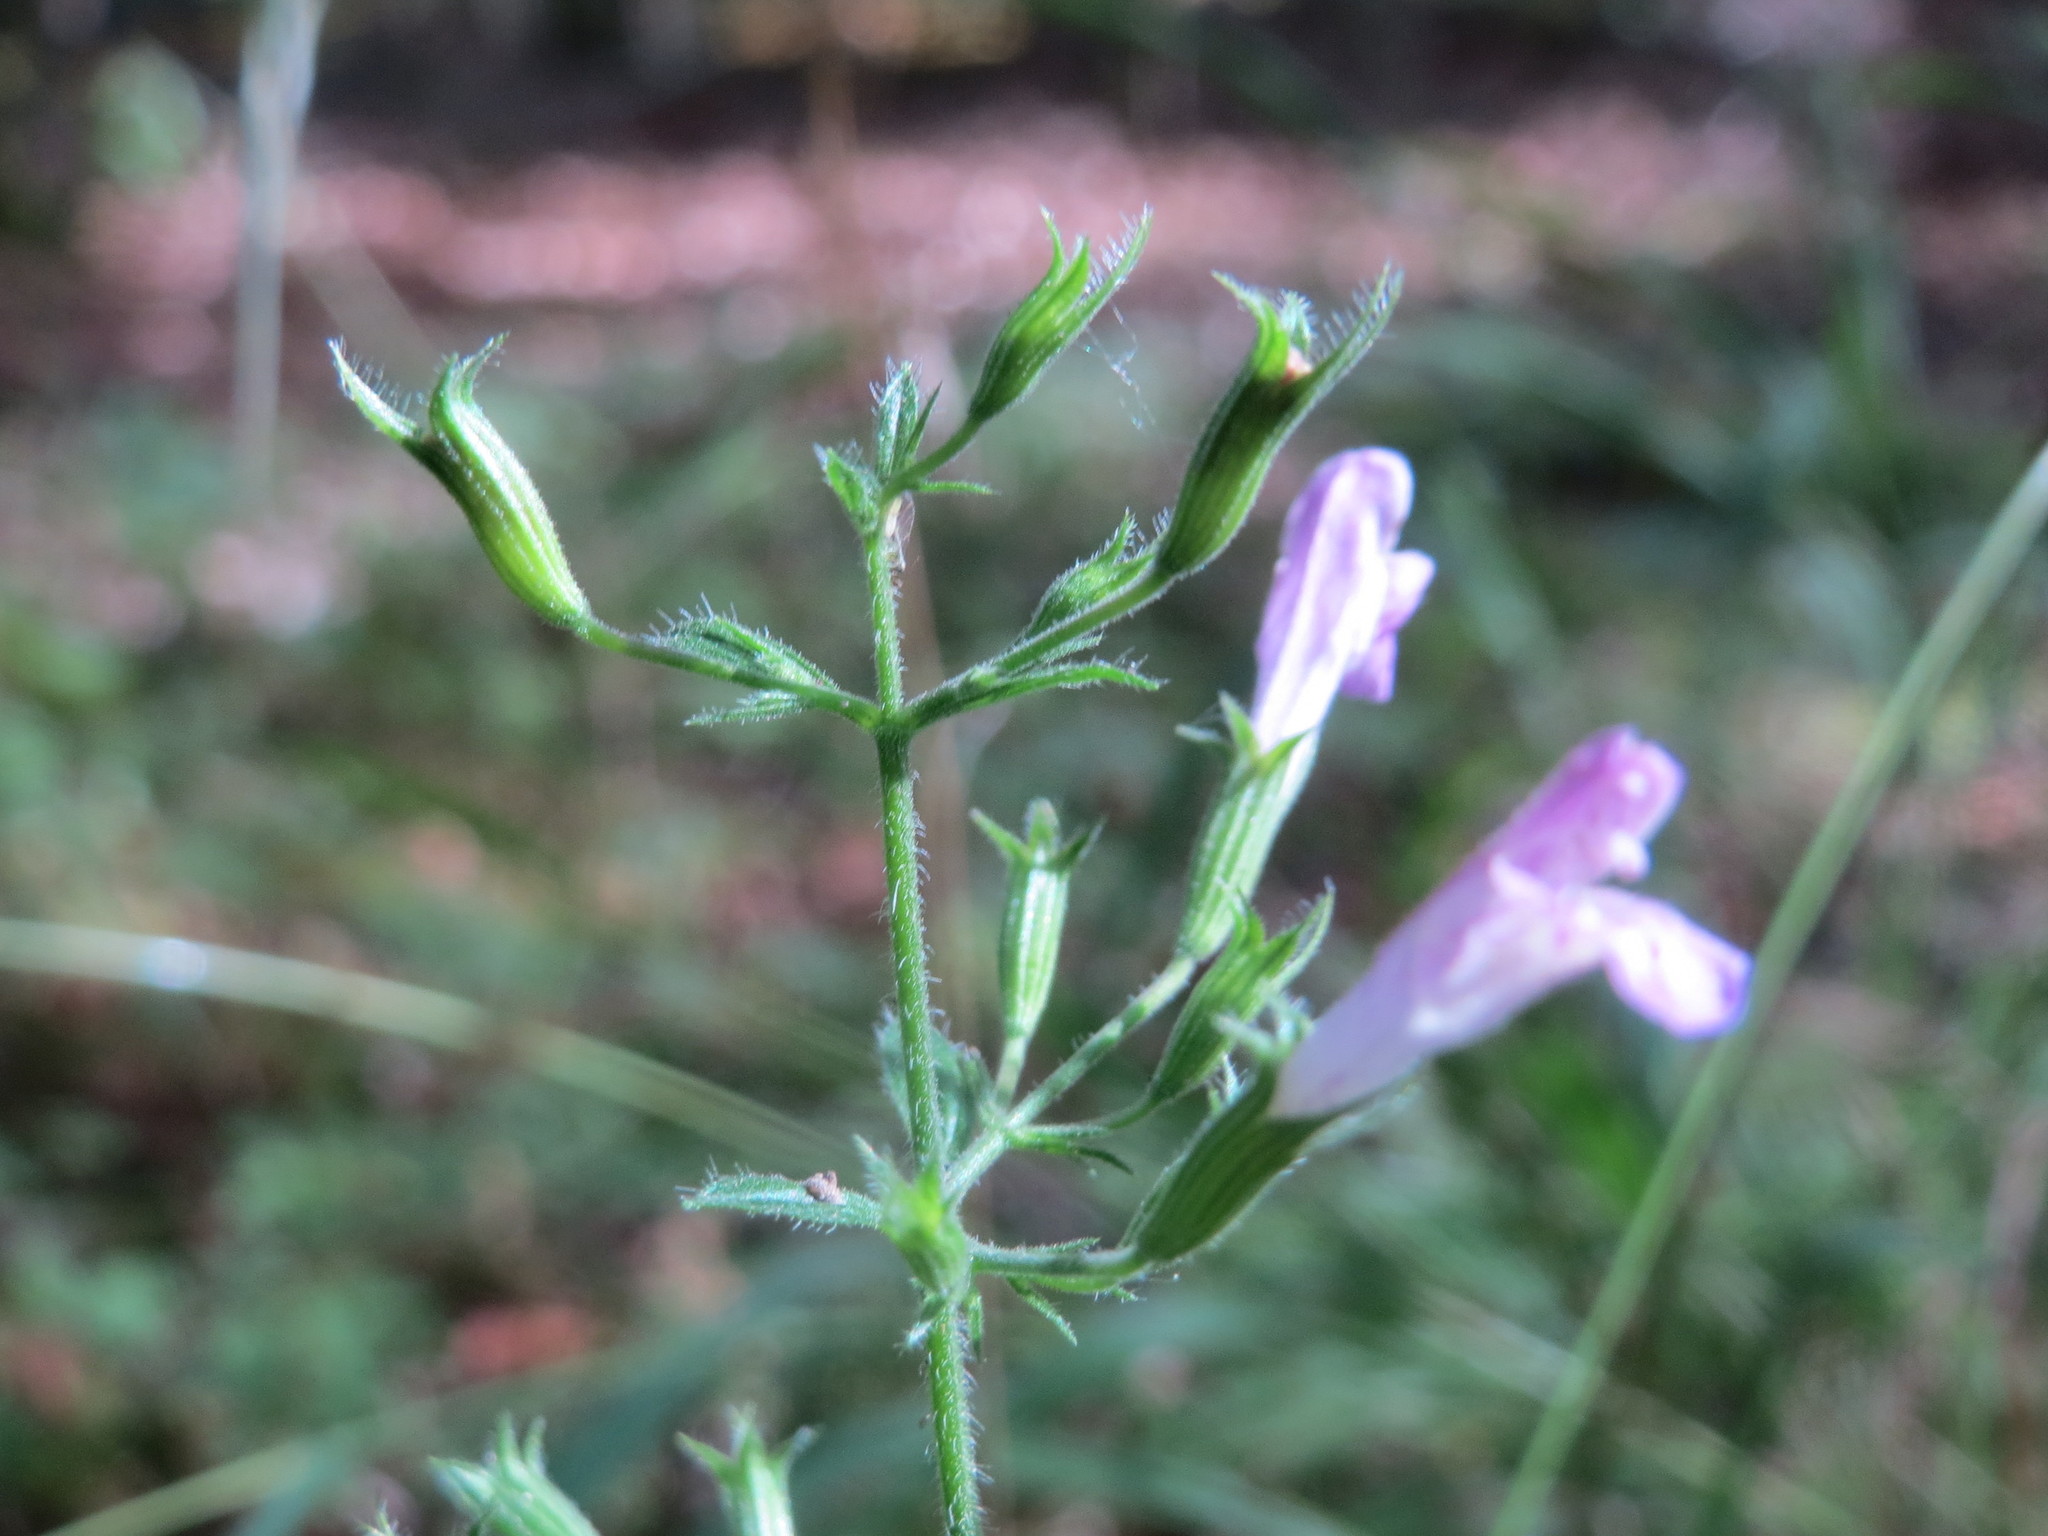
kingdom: Plantae
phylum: Tracheophyta
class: Magnoliopsida
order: Lamiales
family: Lamiaceae
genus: Clinopodium
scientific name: Clinopodium menthifolium
